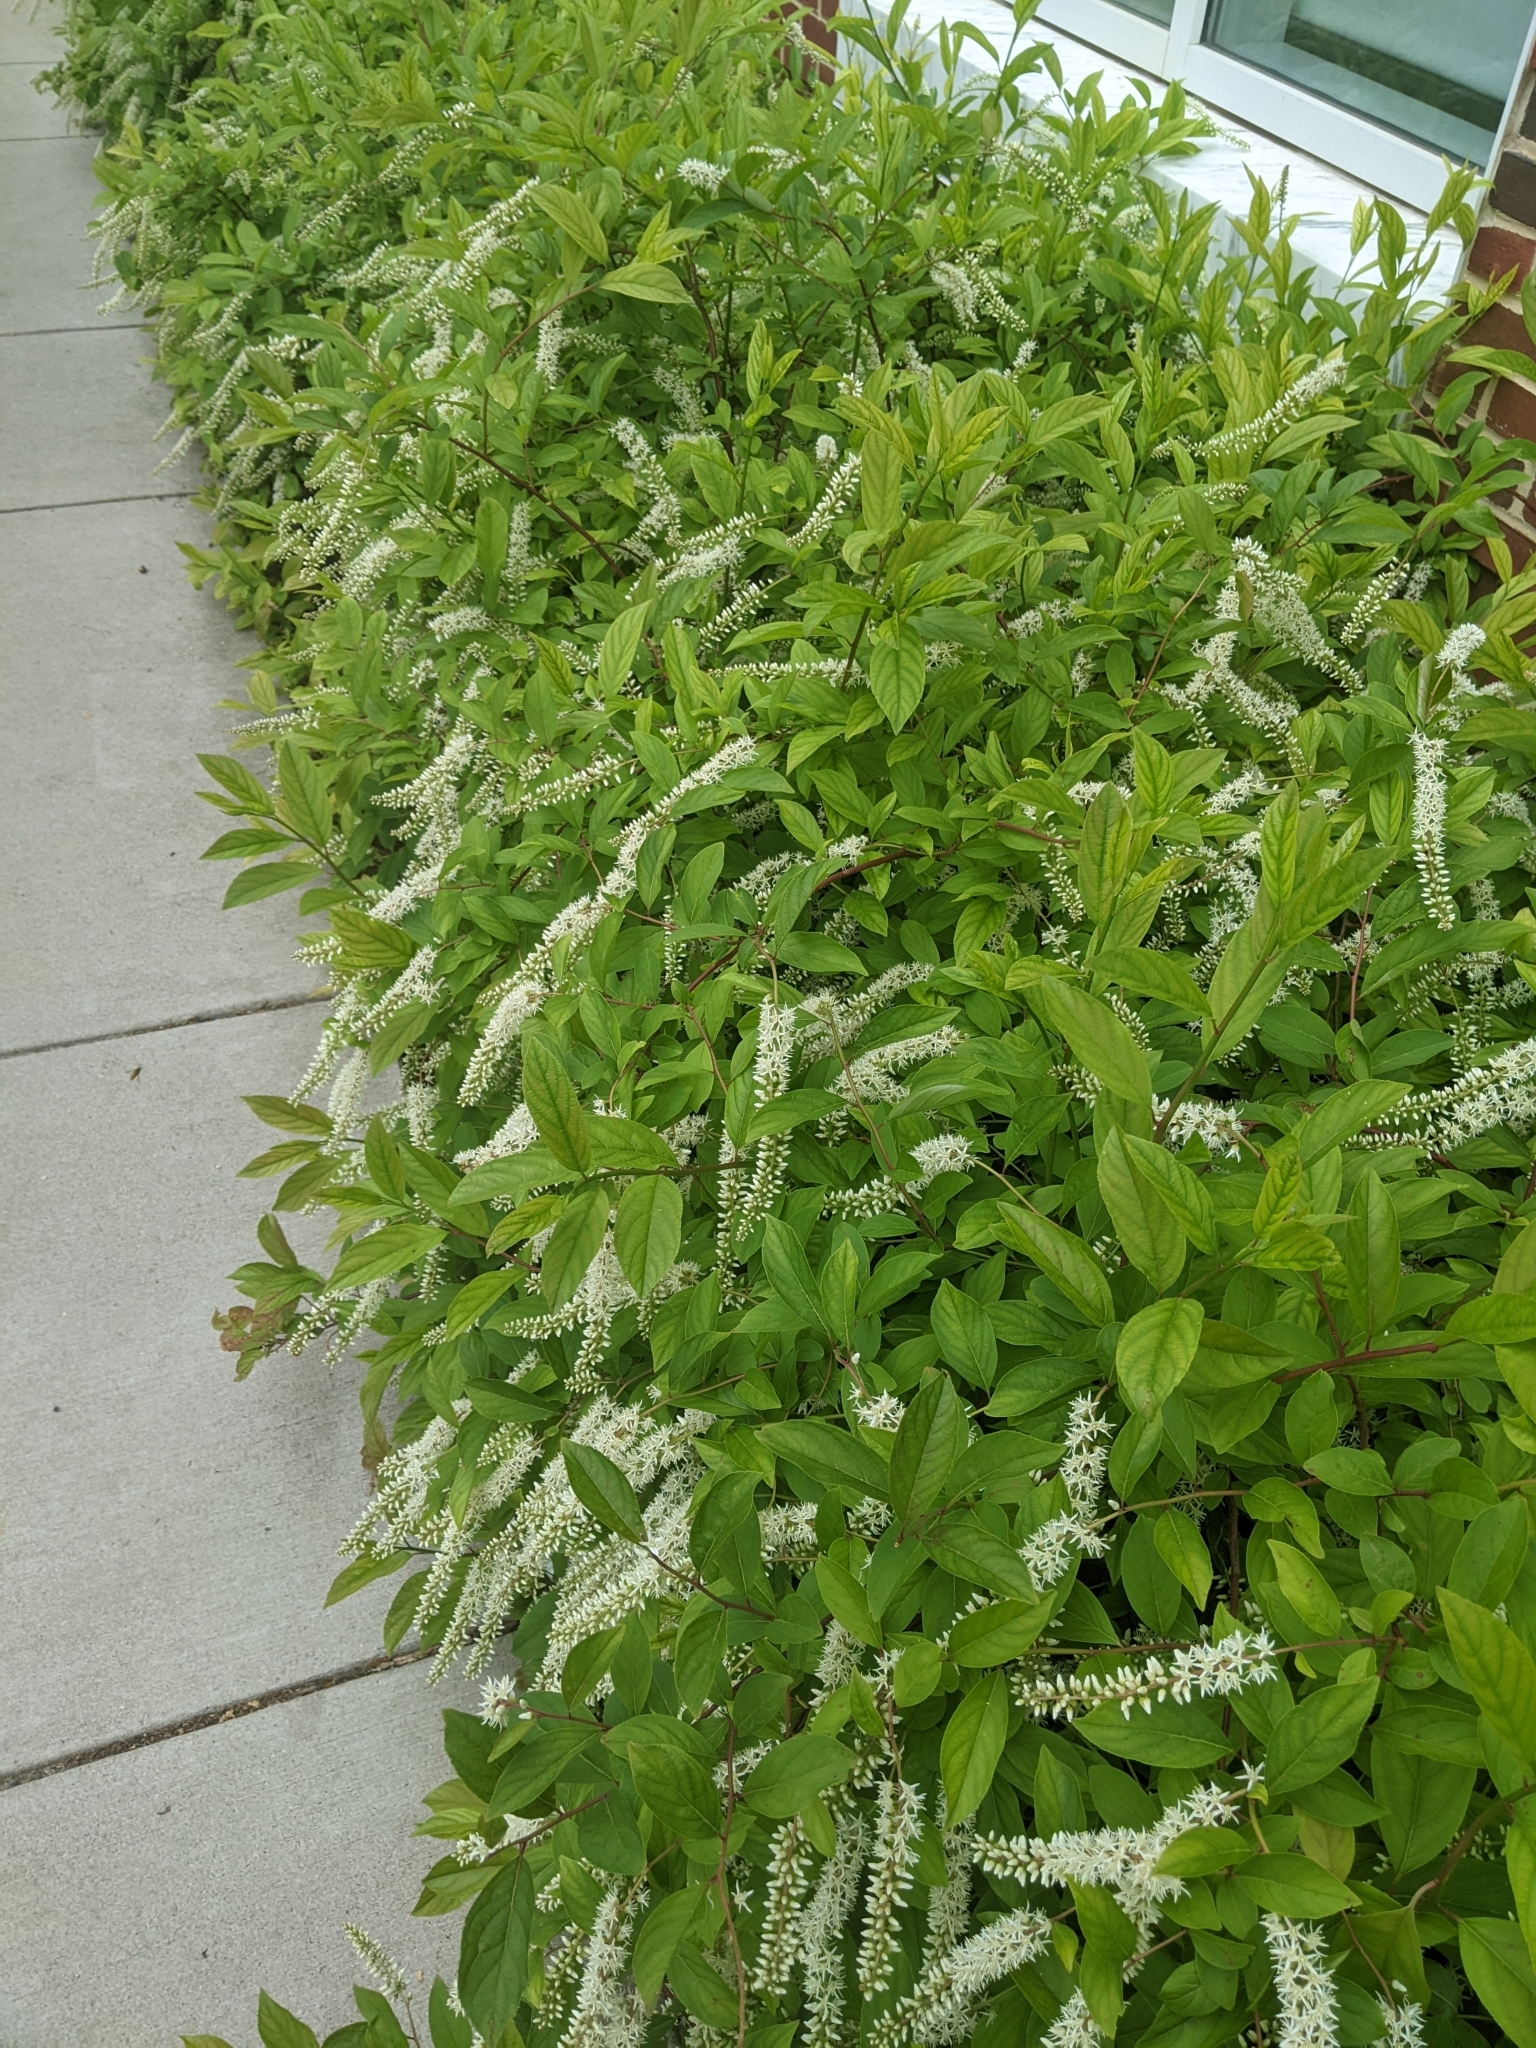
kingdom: Plantae
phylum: Tracheophyta
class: Magnoliopsida
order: Saxifragales
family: Iteaceae
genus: Itea
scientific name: Itea virginica
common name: Sweetspire
